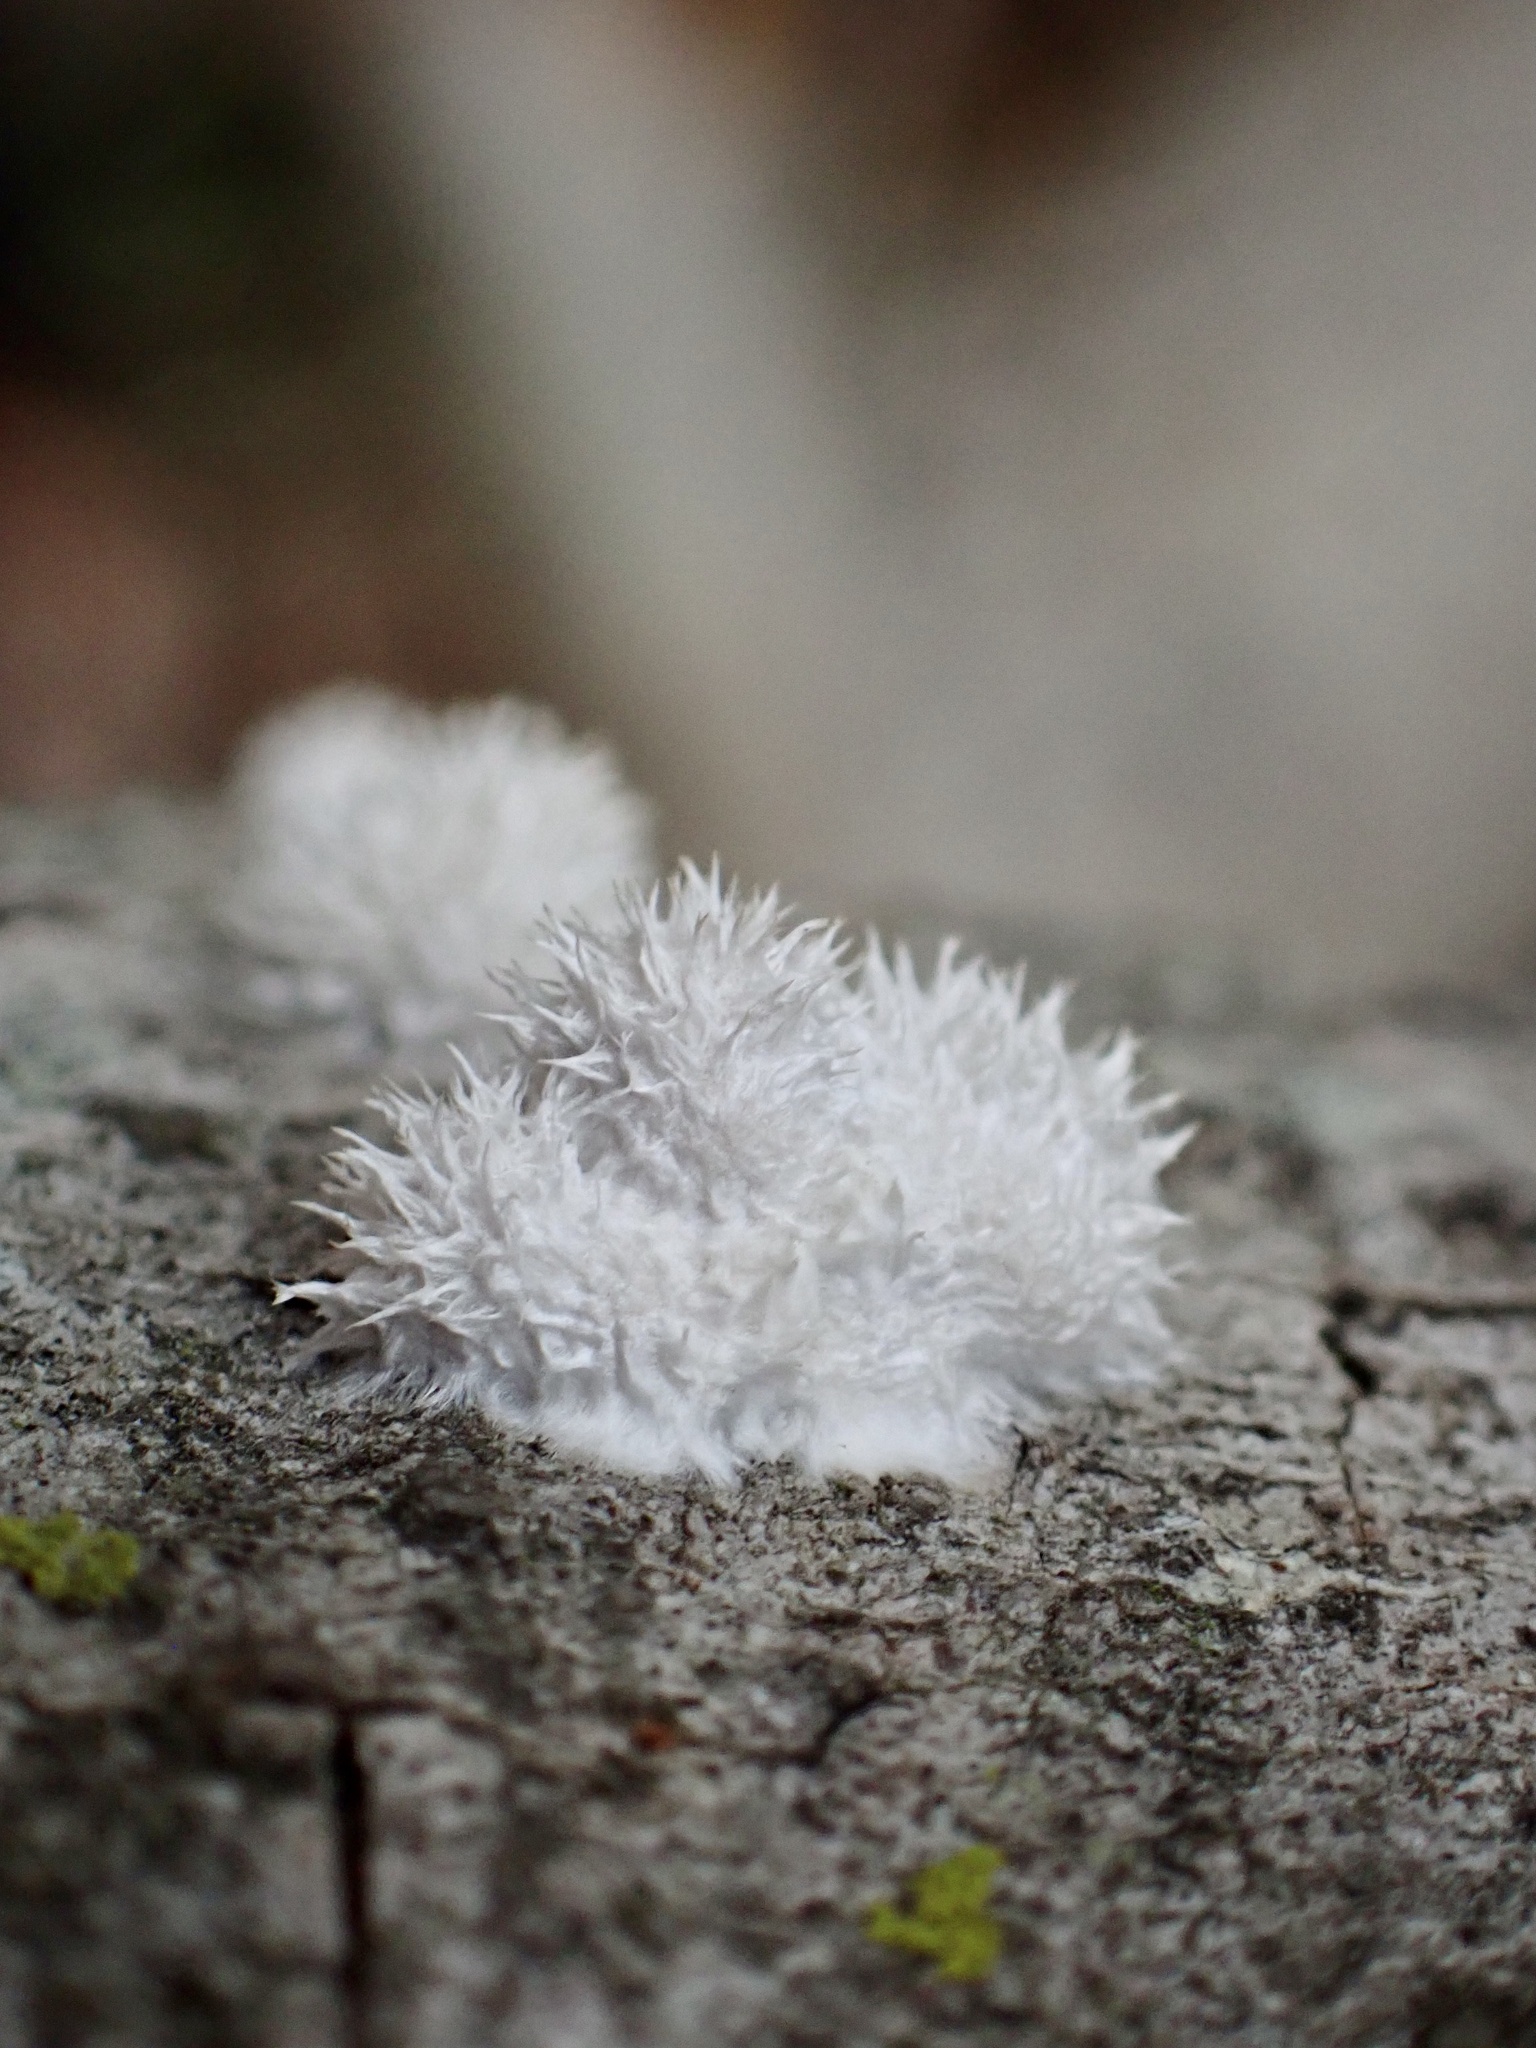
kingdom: Fungi
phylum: Basidiomycota
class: Agaricomycetes
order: Agaricales
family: Schizophyllaceae
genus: Schizophyllum
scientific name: Schizophyllum commune
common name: Common porecrust
